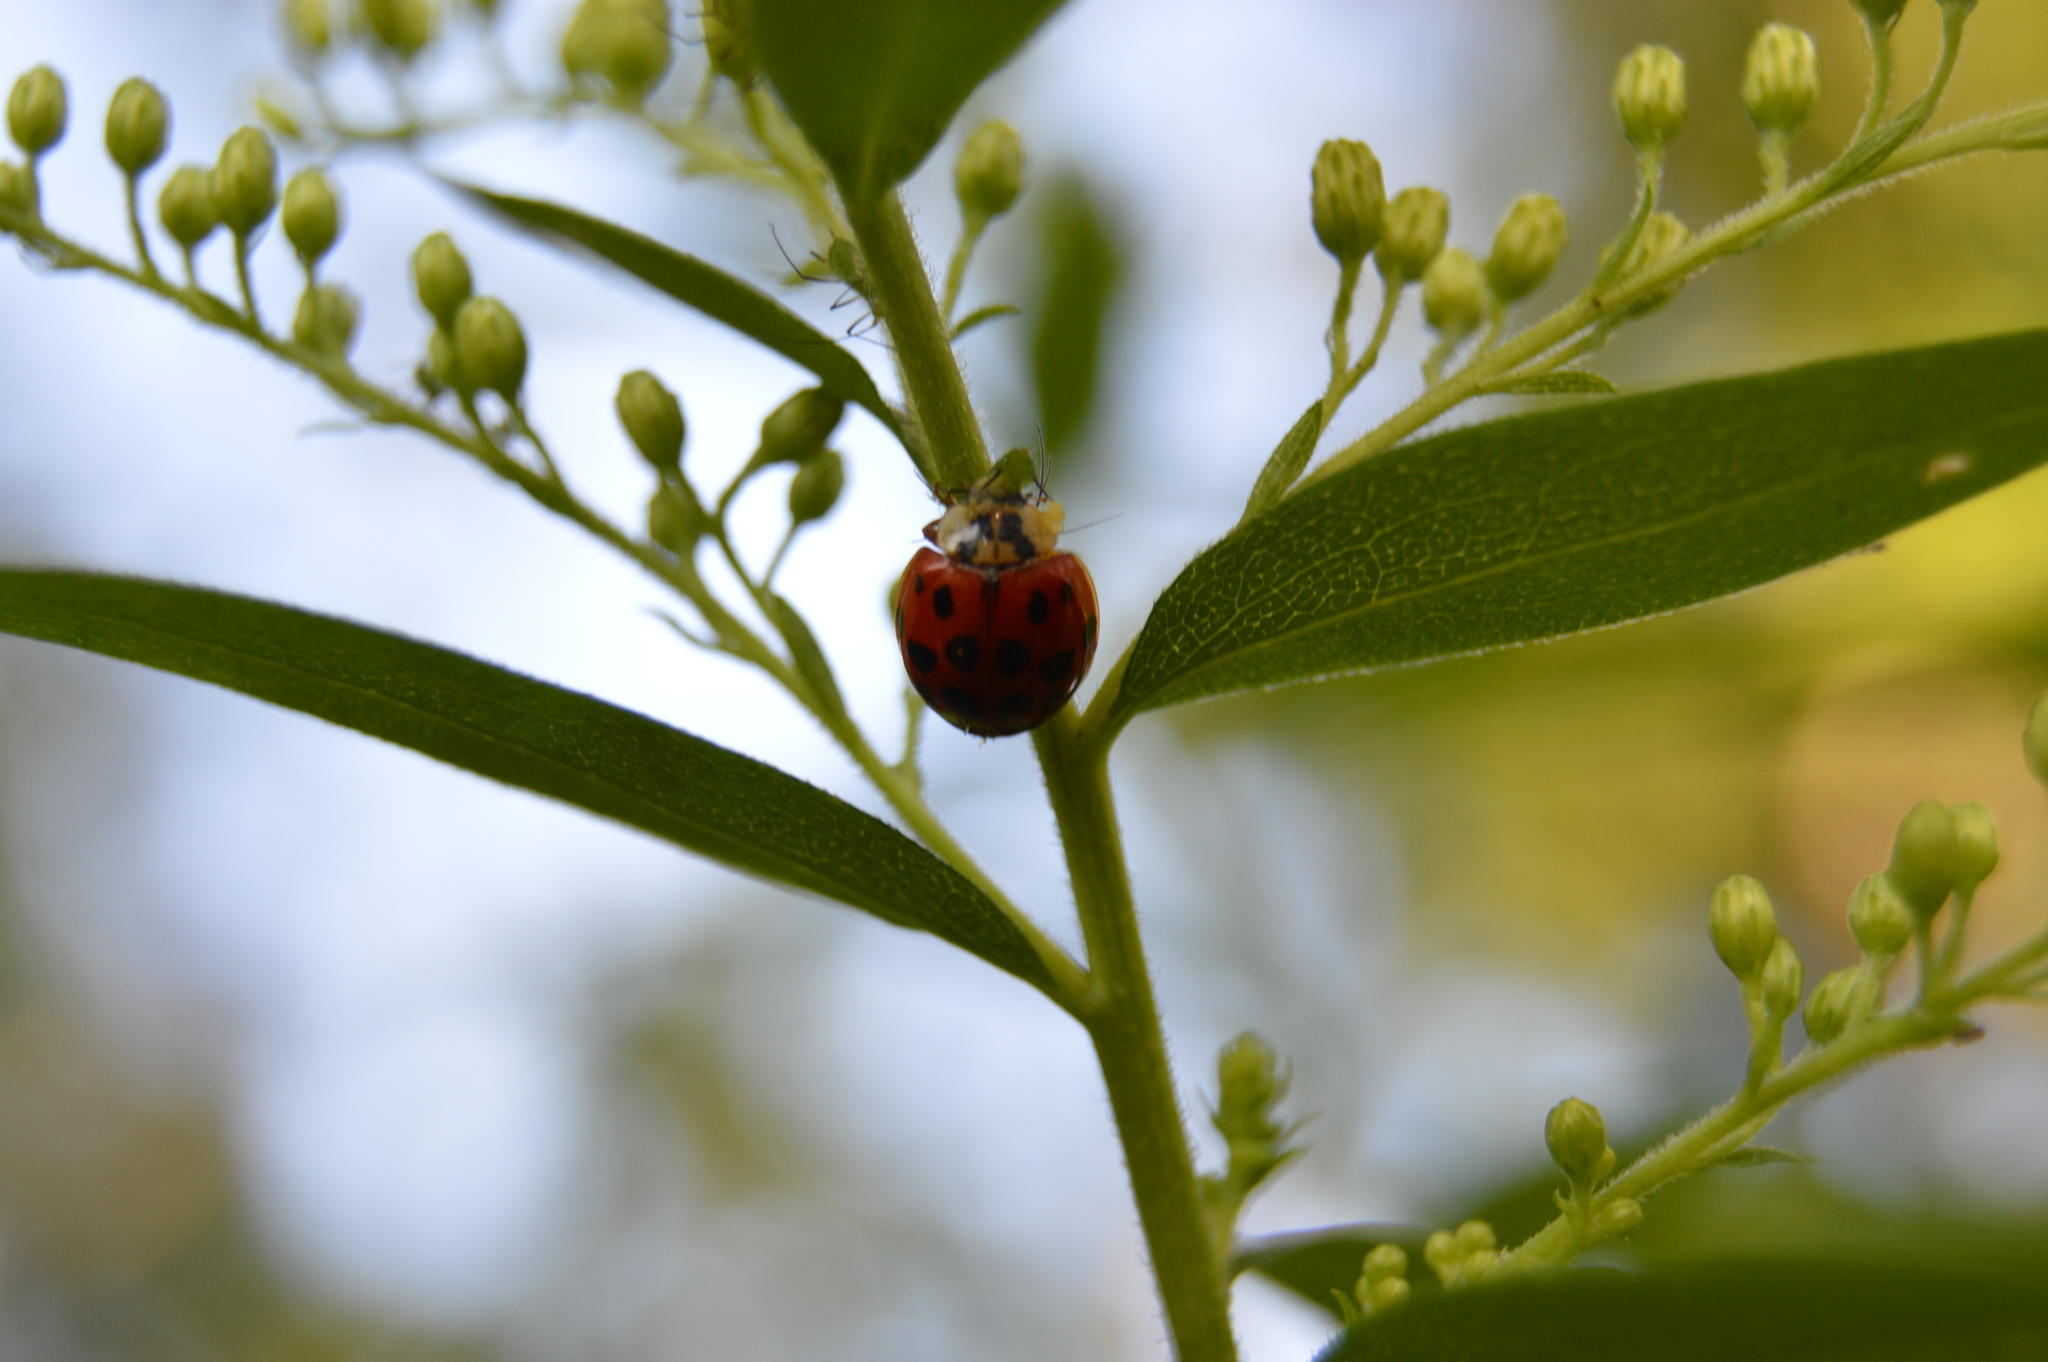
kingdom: Animalia
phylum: Arthropoda
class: Insecta
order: Coleoptera
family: Coccinellidae
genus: Harmonia
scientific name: Harmonia axyridis
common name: Harlequin ladybird
